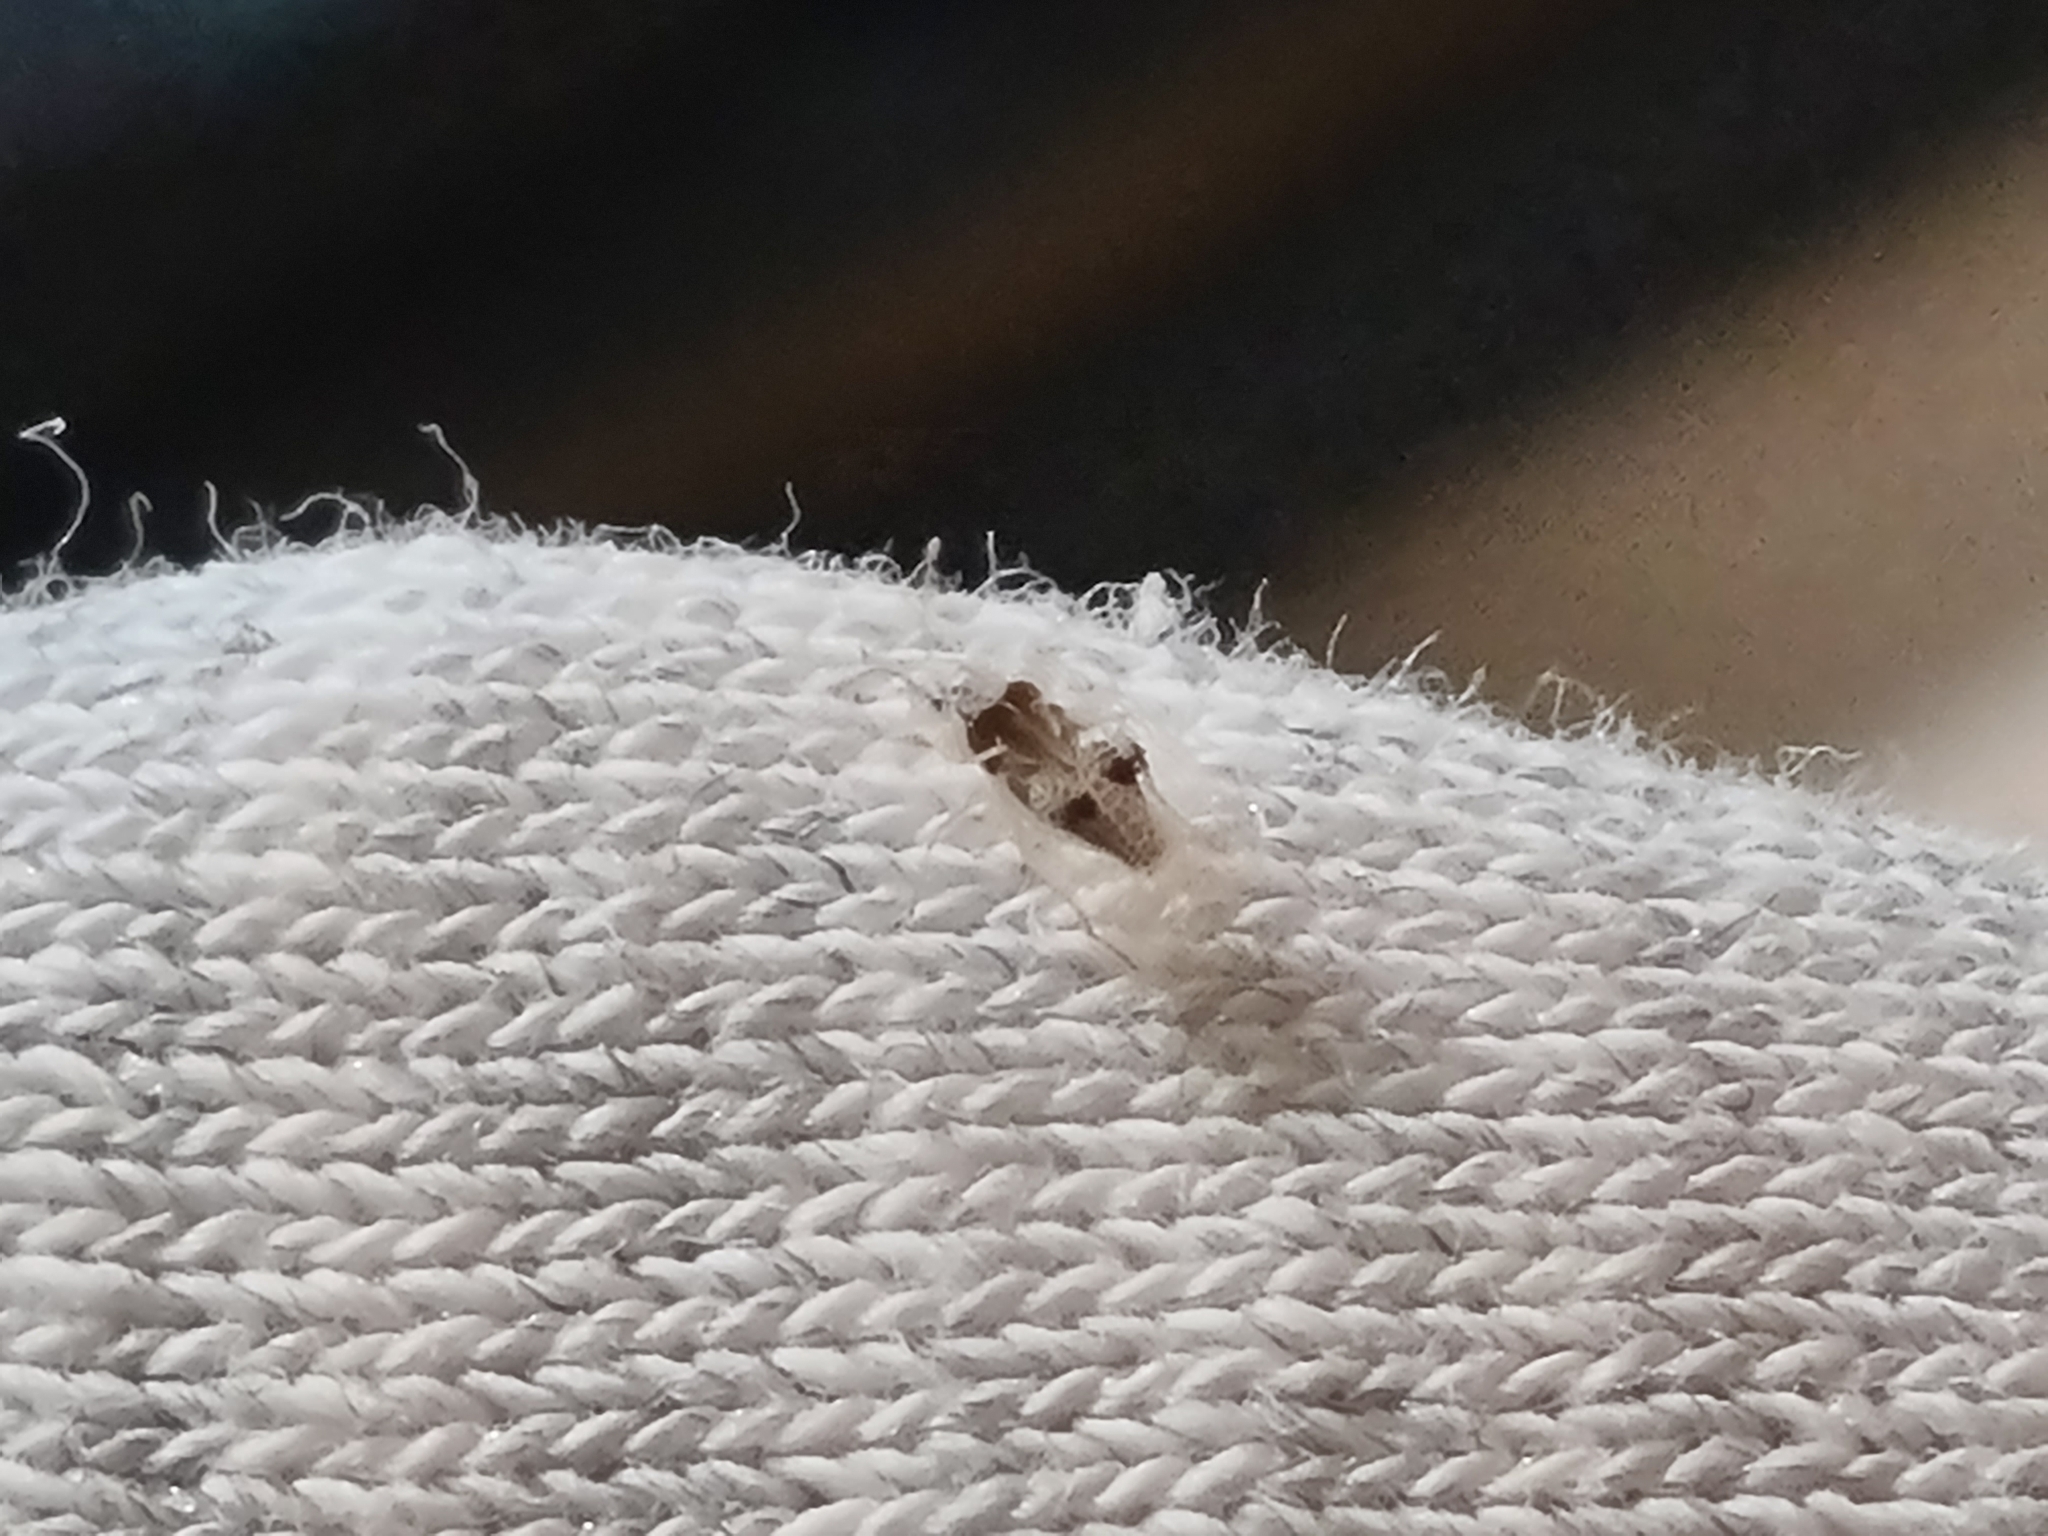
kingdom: Animalia
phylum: Arthropoda
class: Insecta
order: Hemiptera
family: Tingidae
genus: Corythucha
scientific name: Corythucha ciliata
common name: Sycamore lace bug
